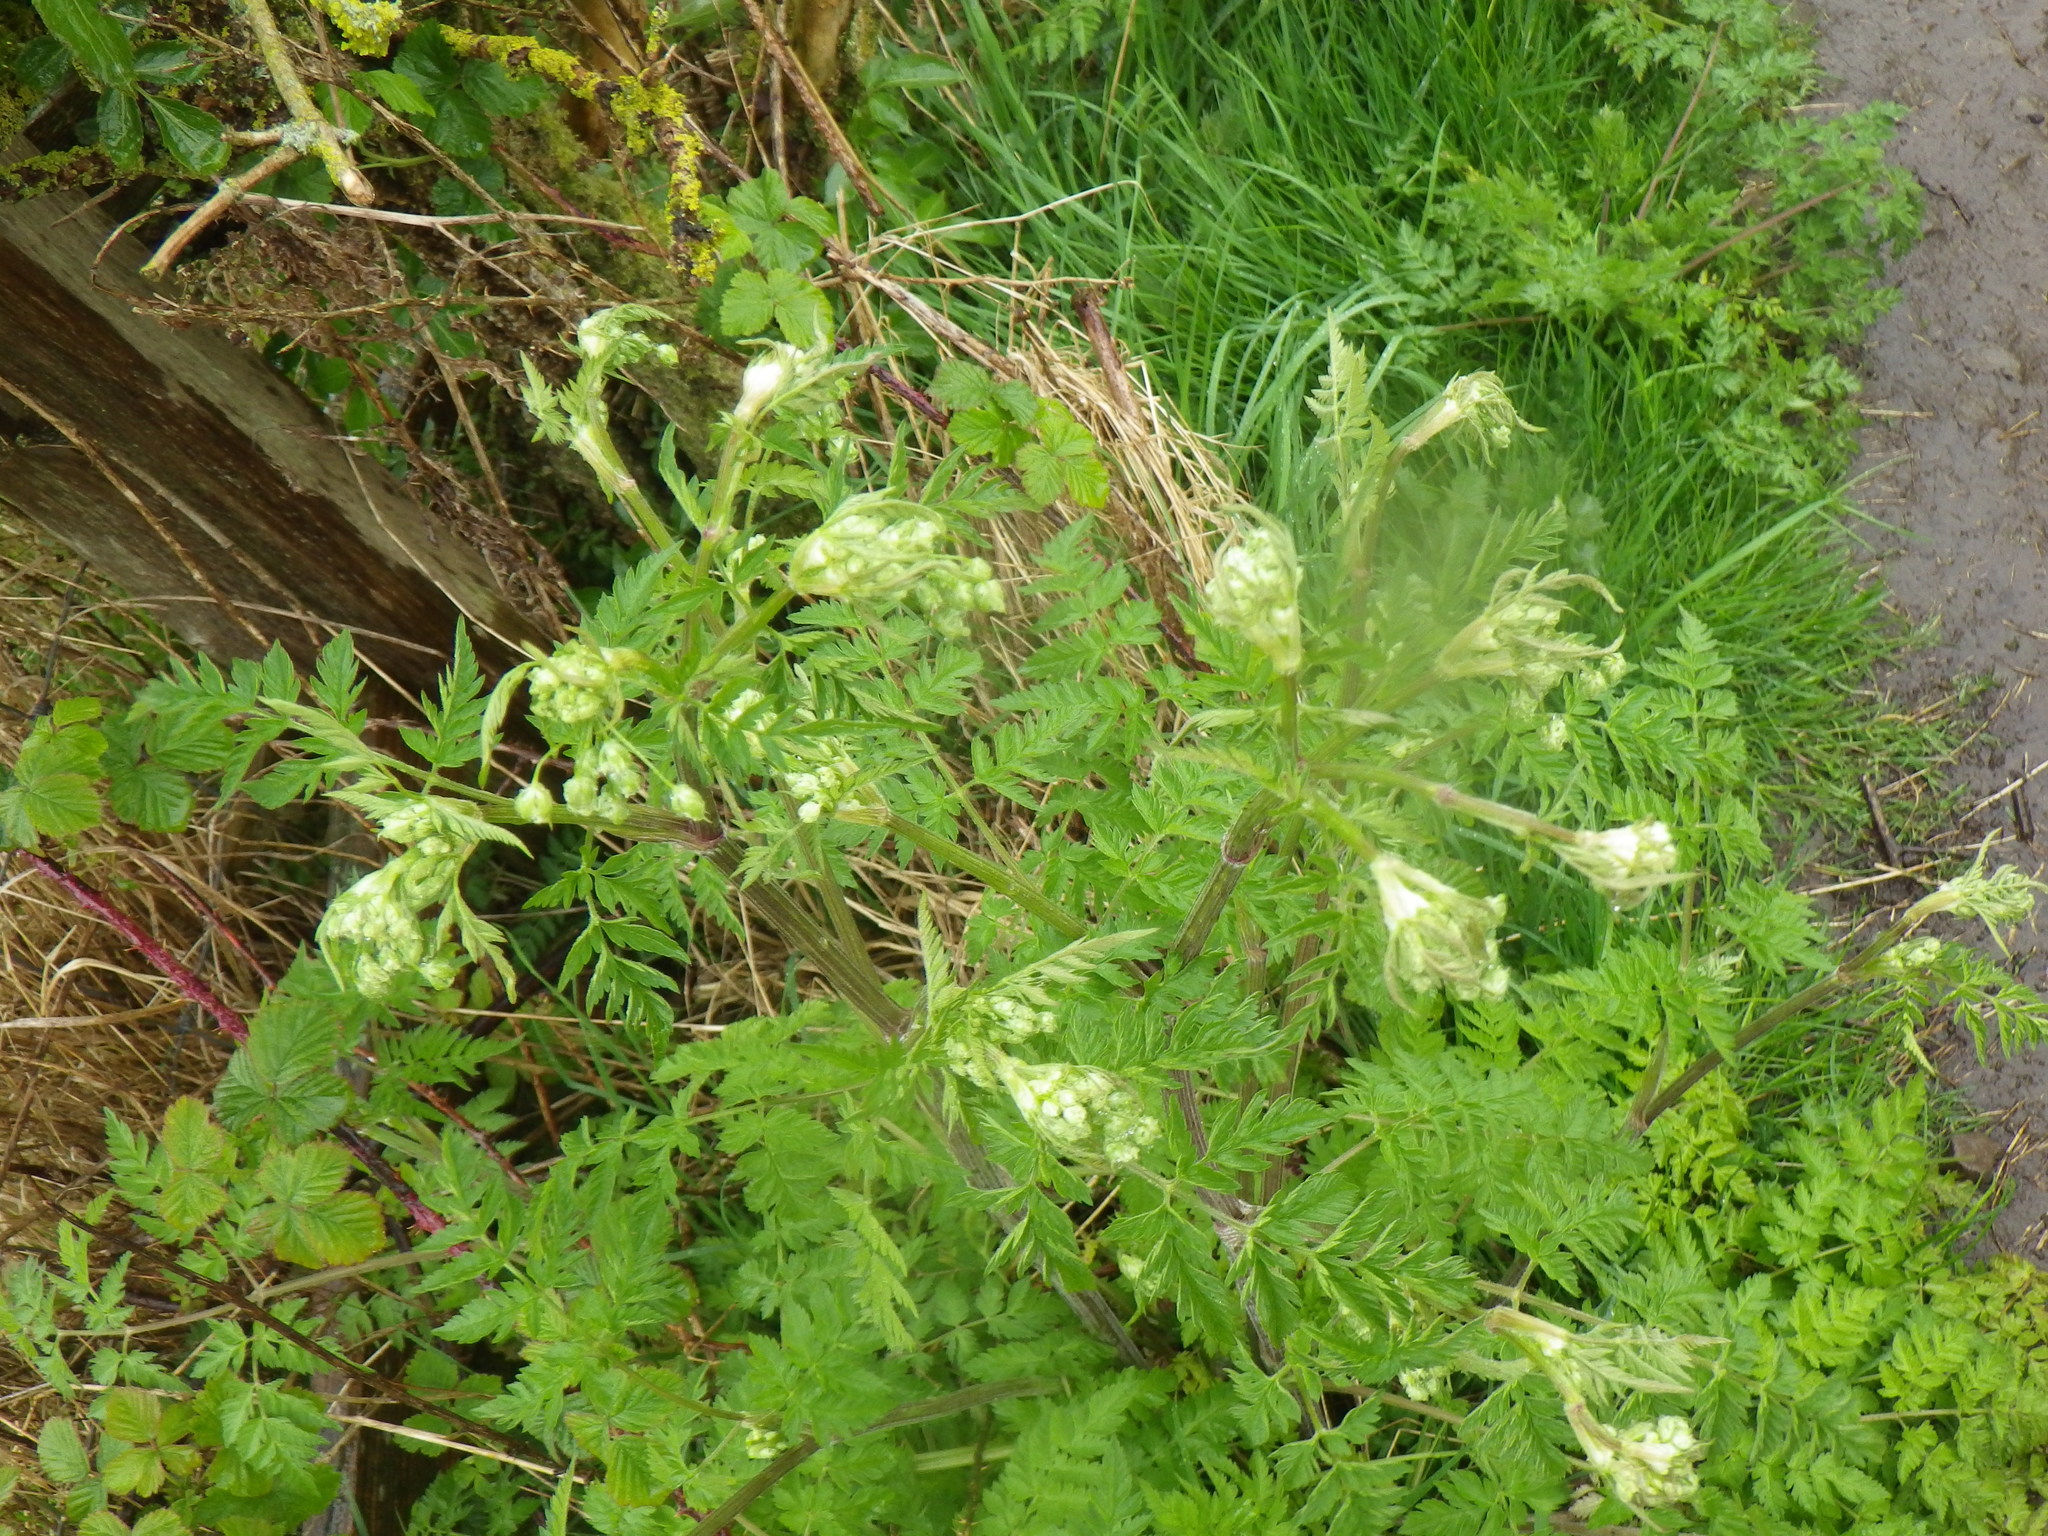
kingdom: Plantae
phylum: Tracheophyta
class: Magnoliopsida
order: Apiales
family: Apiaceae
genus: Anthriscus
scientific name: Anthriscus sylvestris
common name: Cow parsley
